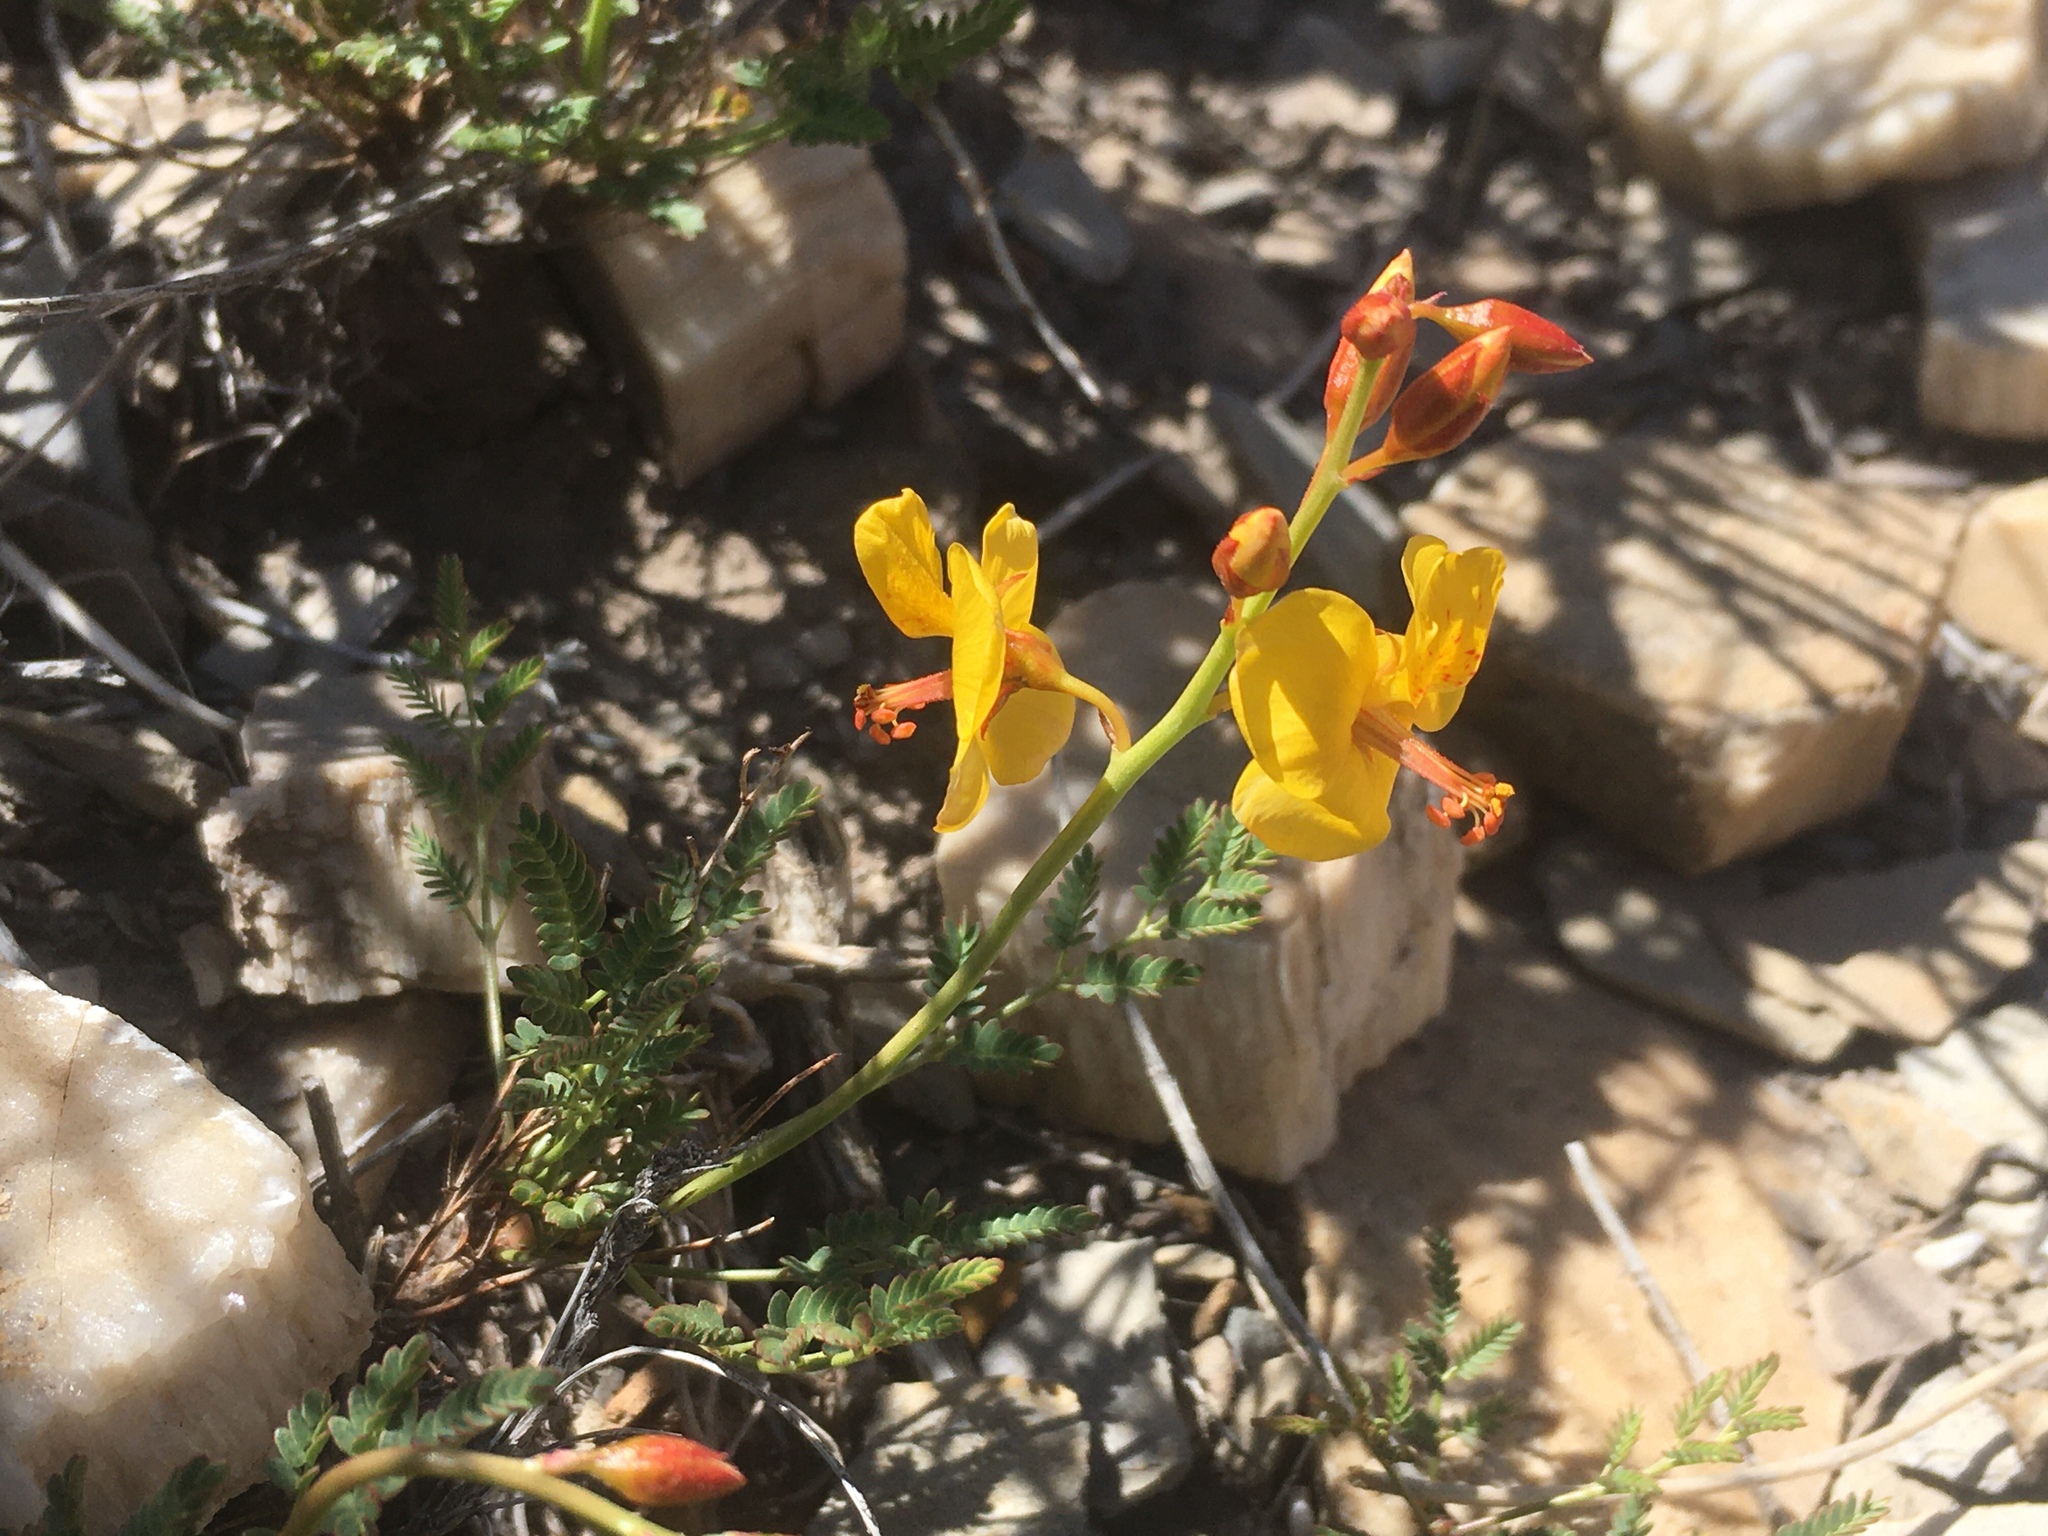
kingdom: Plantae
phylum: Tracheophyta
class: Magnoliopsida
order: Fabales
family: Fabaceae
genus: Hoffmannseggia
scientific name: Hoffmannseggia erecta
